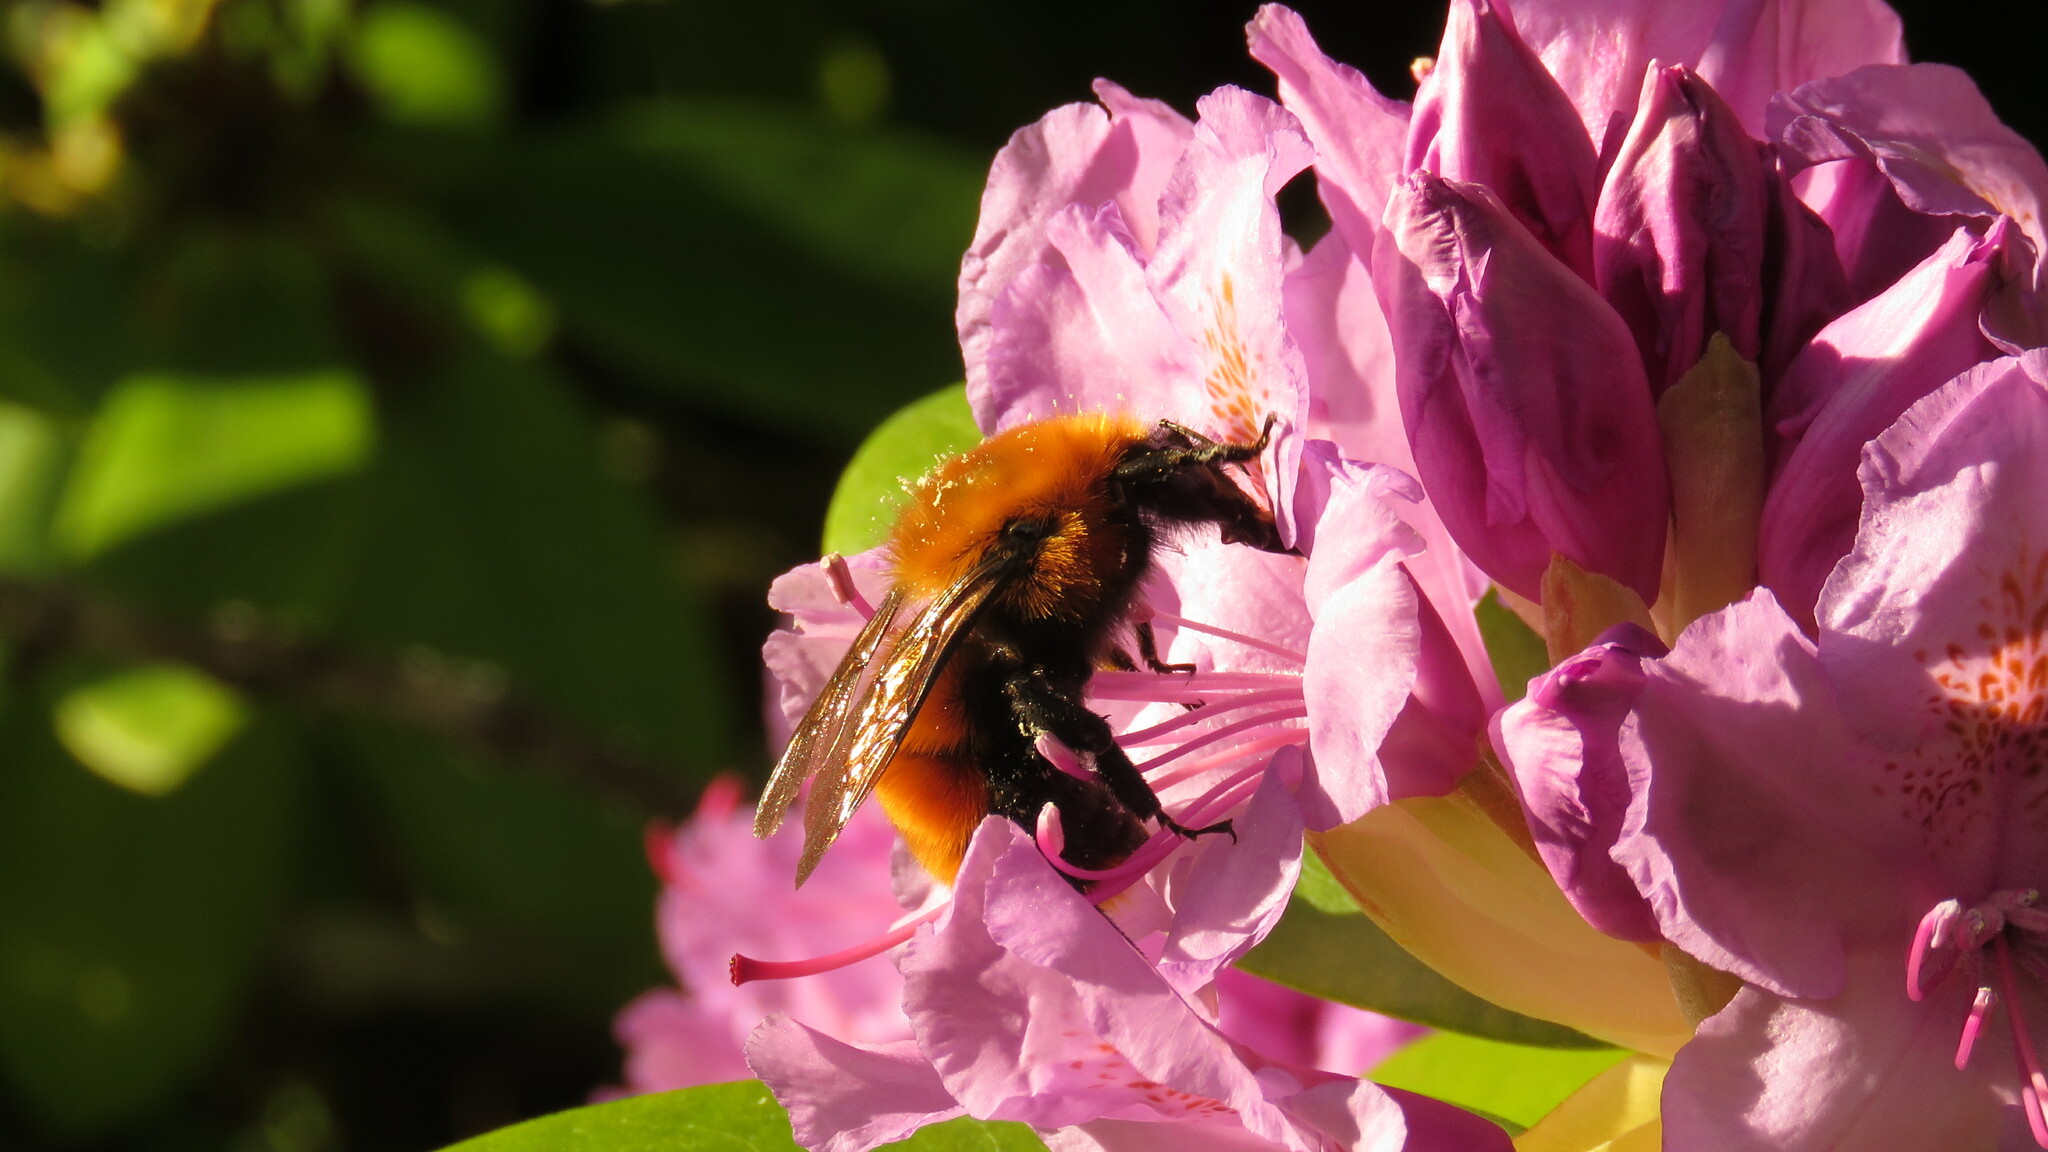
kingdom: Animalia
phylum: Arthropoda
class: Insecta
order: Hymenoptera
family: Apidae
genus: Bombus
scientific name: Bombus dahlbomii
